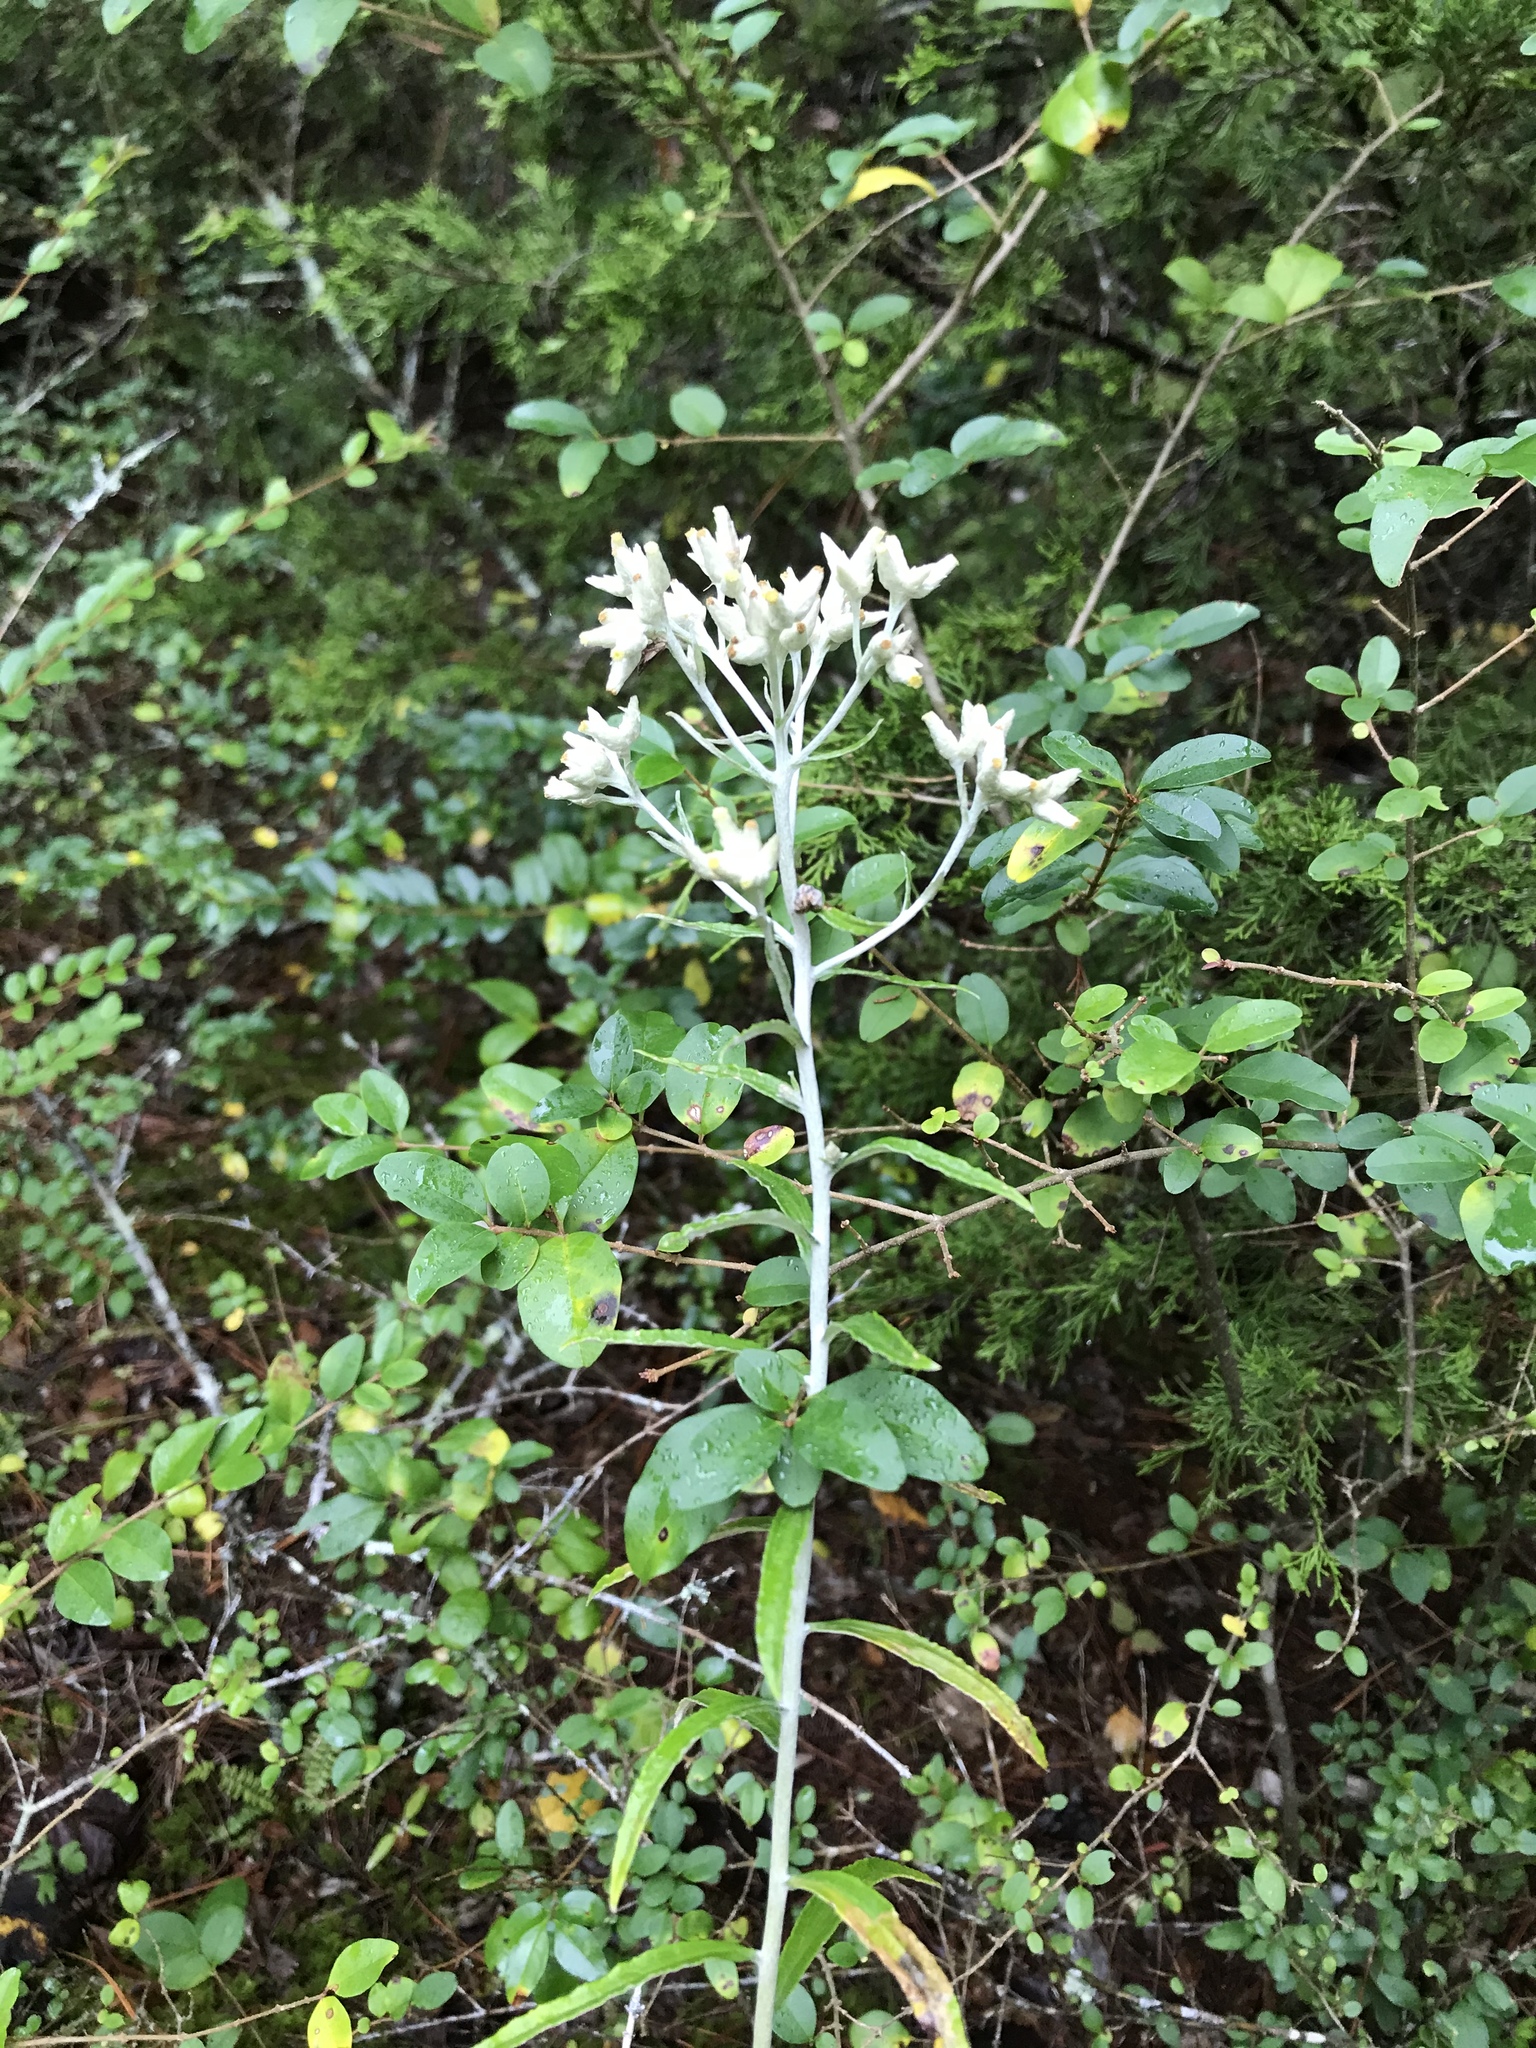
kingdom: Plantae
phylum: Tracheophyta
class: Magnoliopsida
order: Asterales
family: Asteraceae
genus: Pseudognaphalium
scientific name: Pseudognaphalium obtusifolium
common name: Eastern rabbit-tobacco
